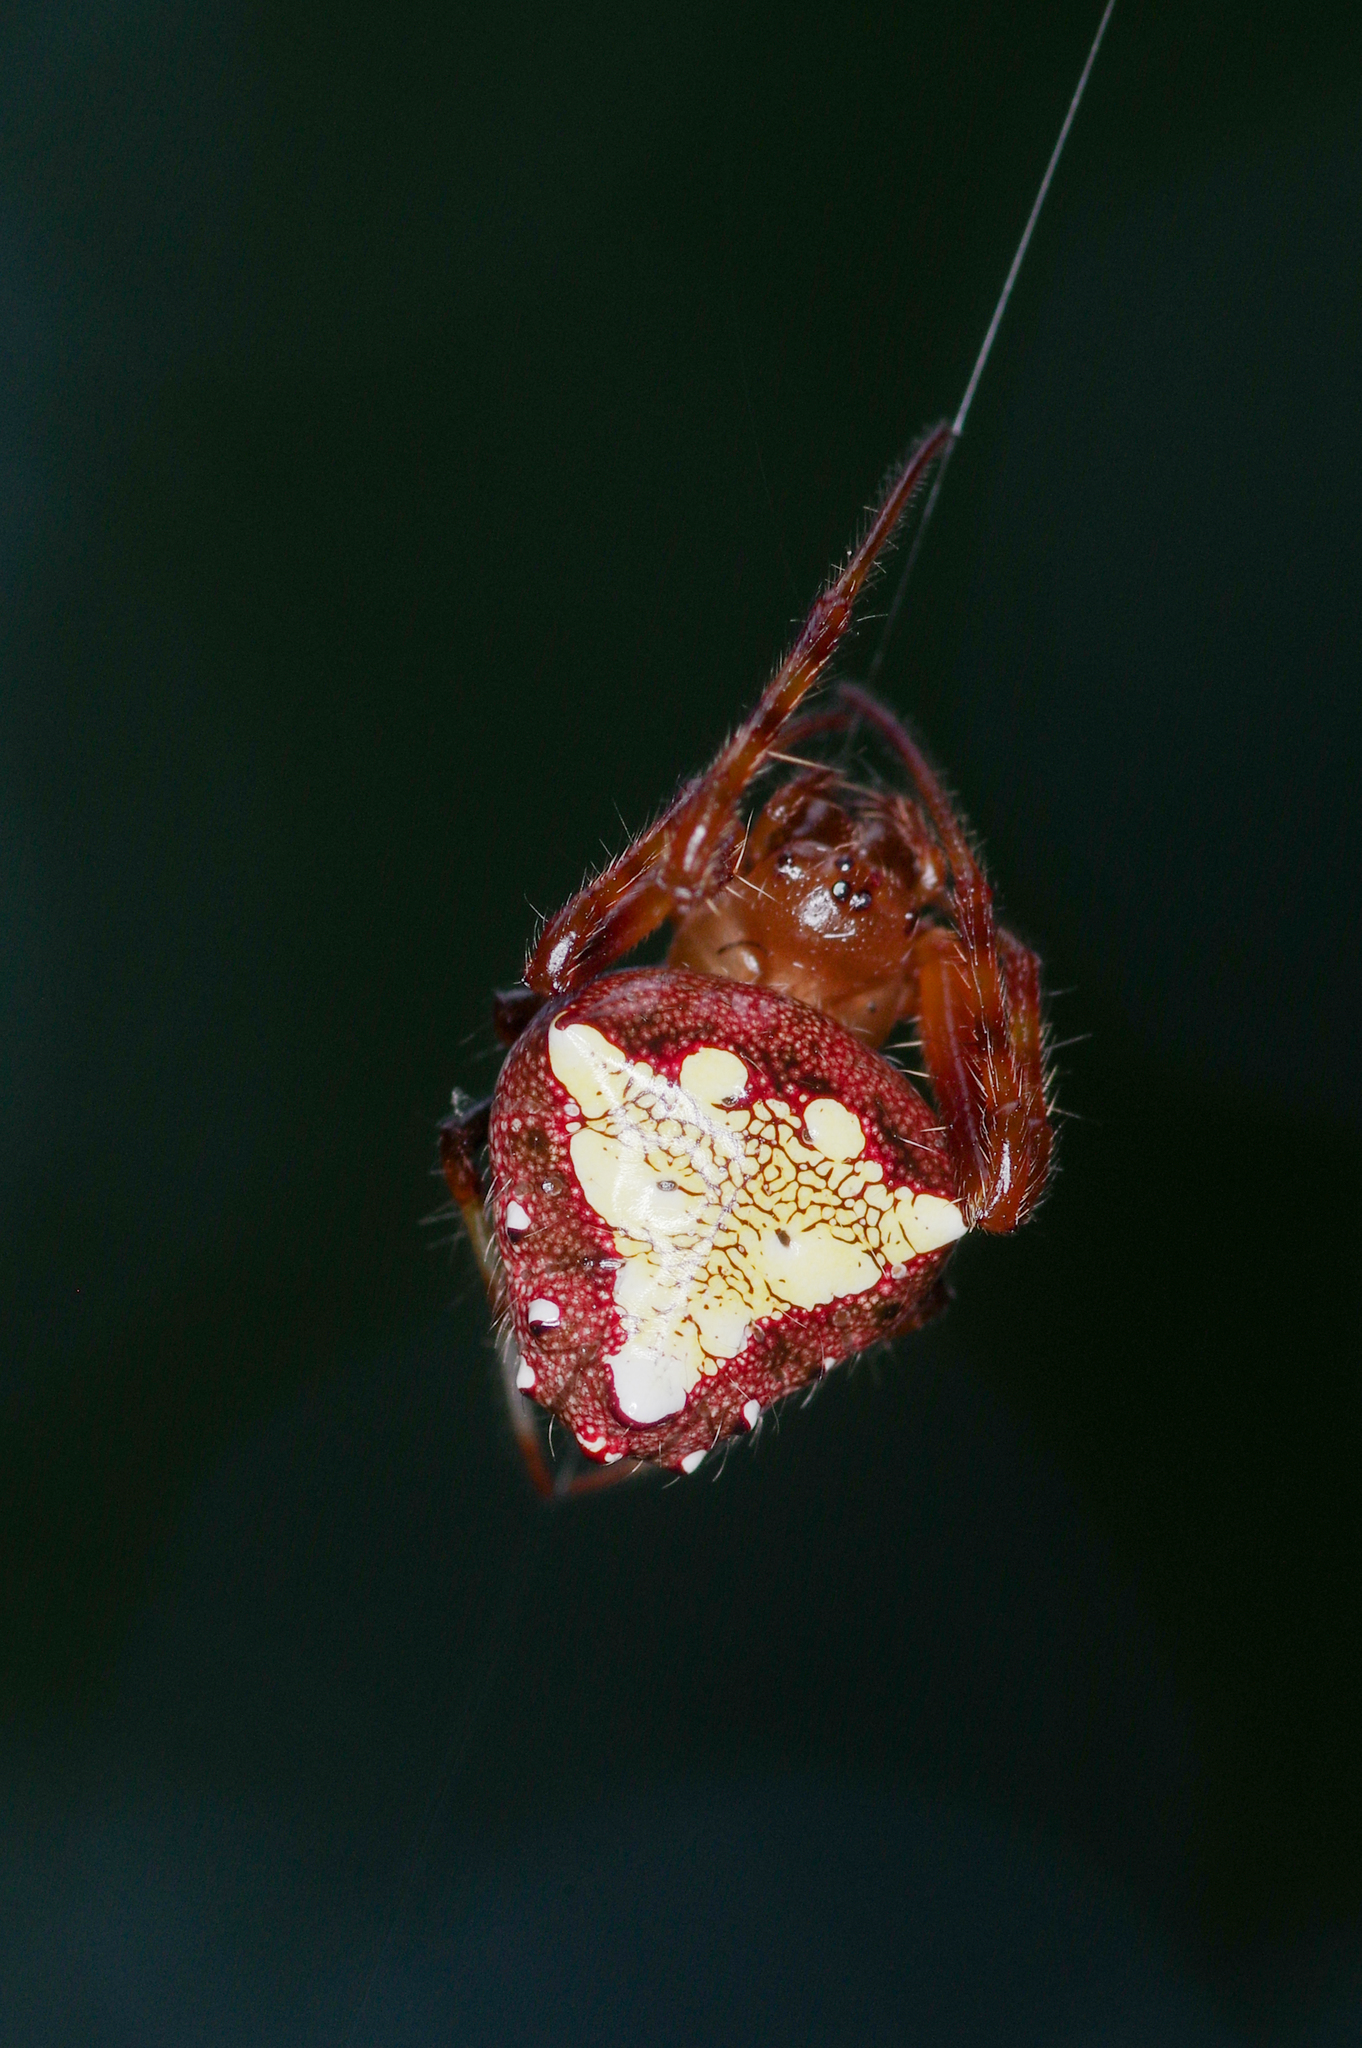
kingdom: Animalia
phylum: Arthropoda
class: Arachnida
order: Araneae
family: Araneidae
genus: Verrucosa
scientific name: Verrucosa arenata
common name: Orb weavers
